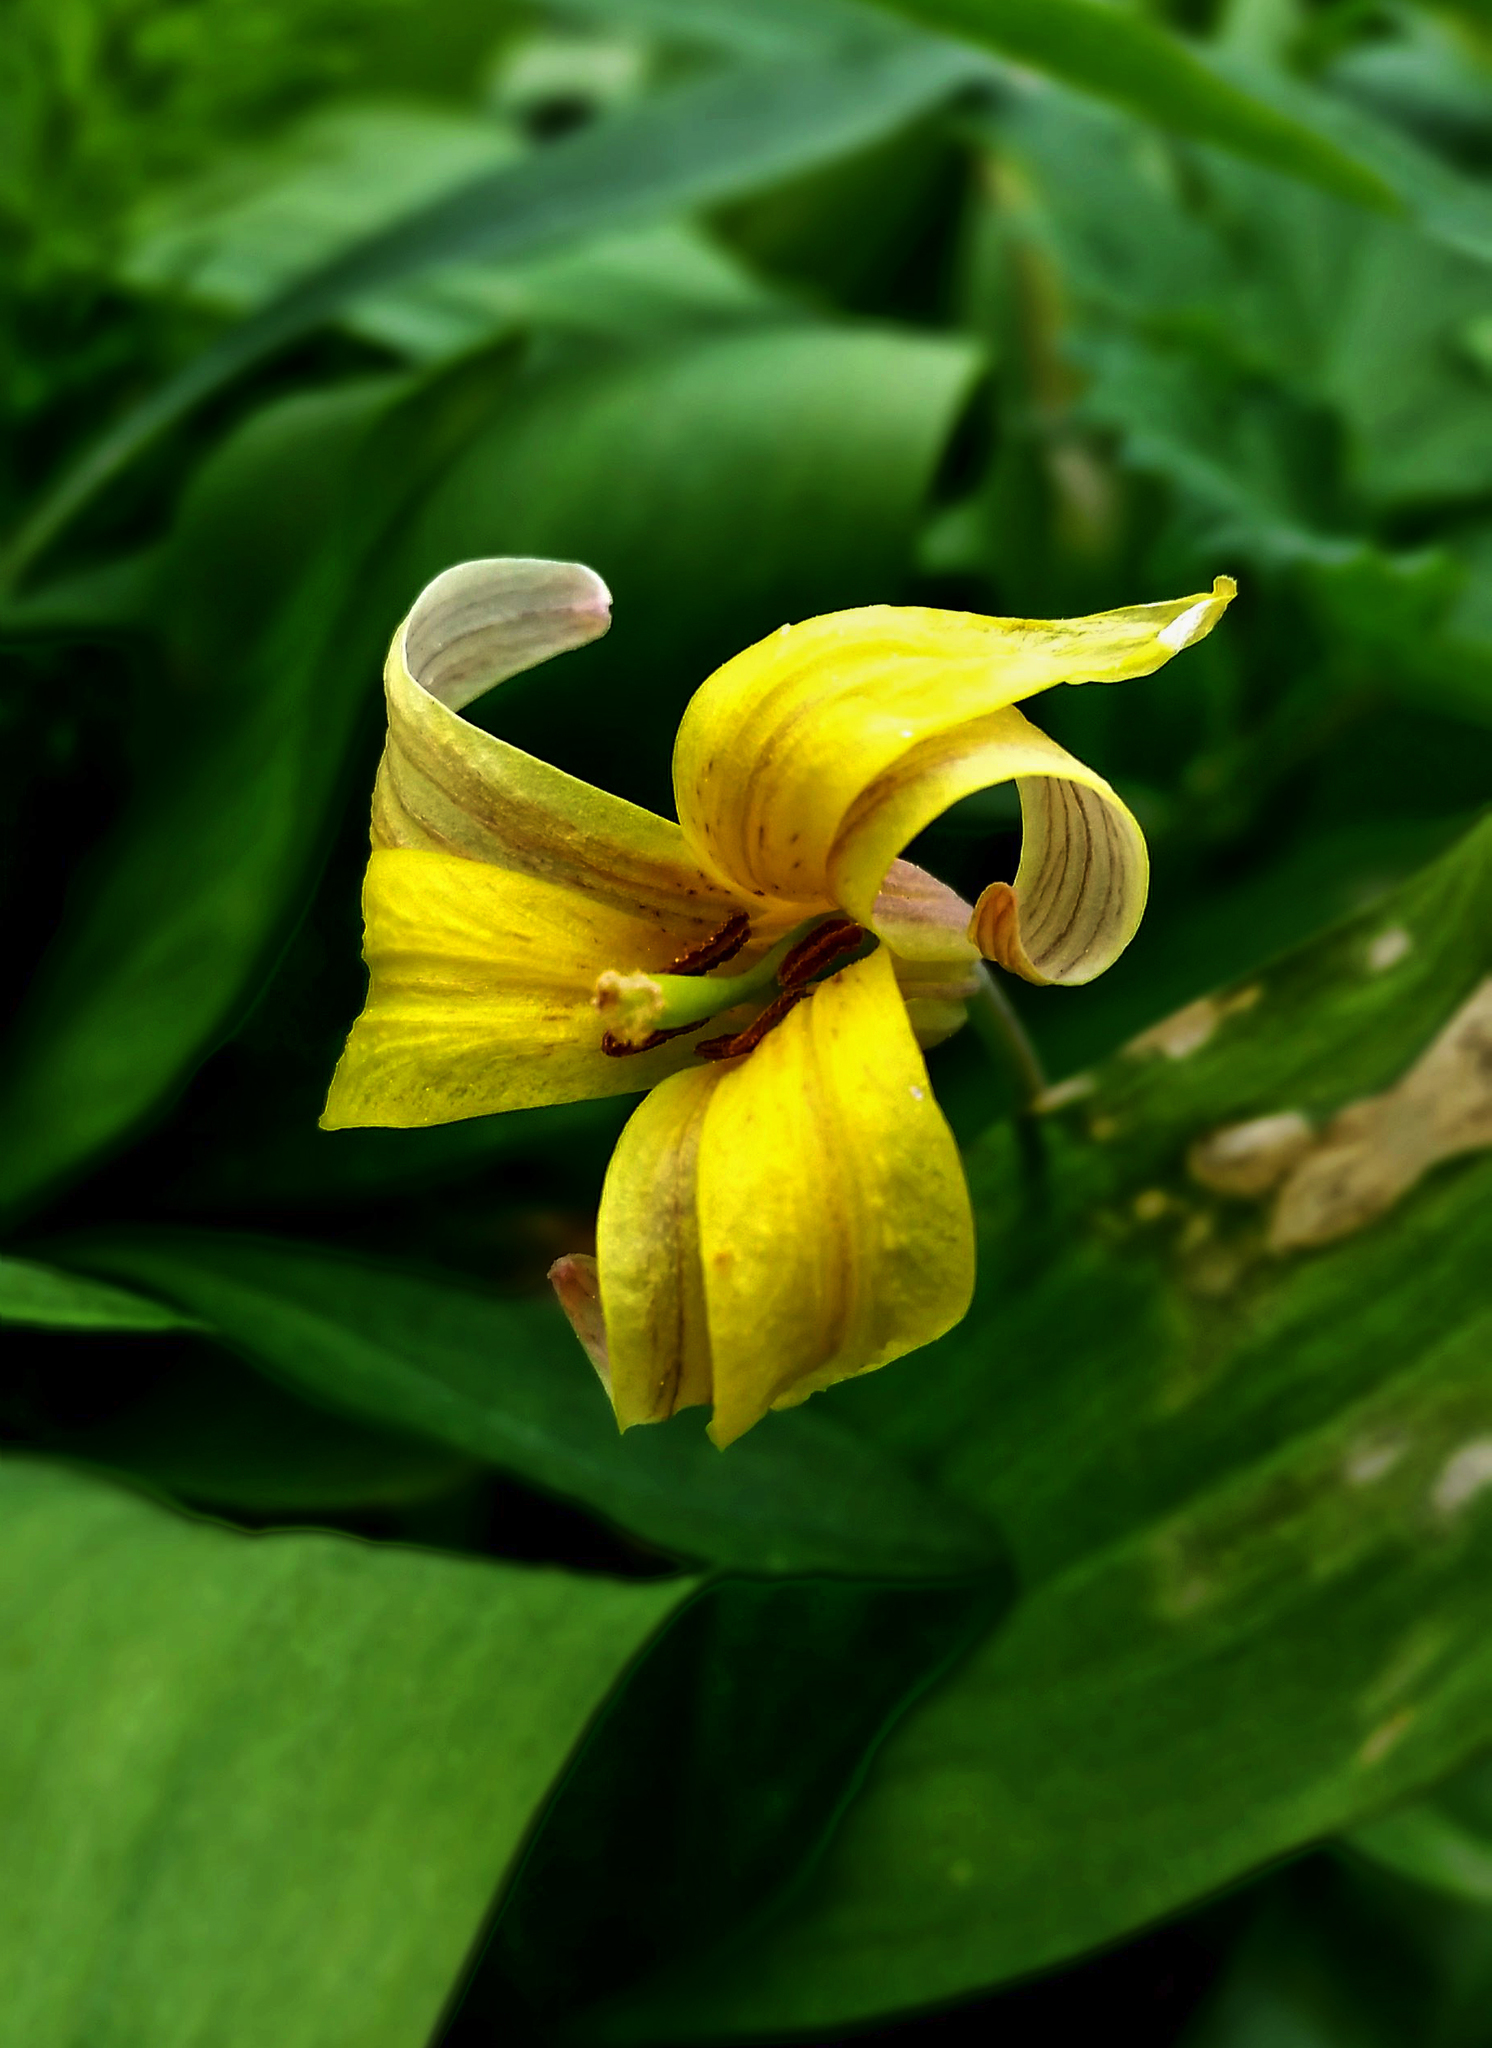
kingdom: Plantae
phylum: Tracheophyta
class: Liliopsida
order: Liliales
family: Liliaceae
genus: Erythronium
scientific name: Erythronium americanum
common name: Yellow adder's-tongue
